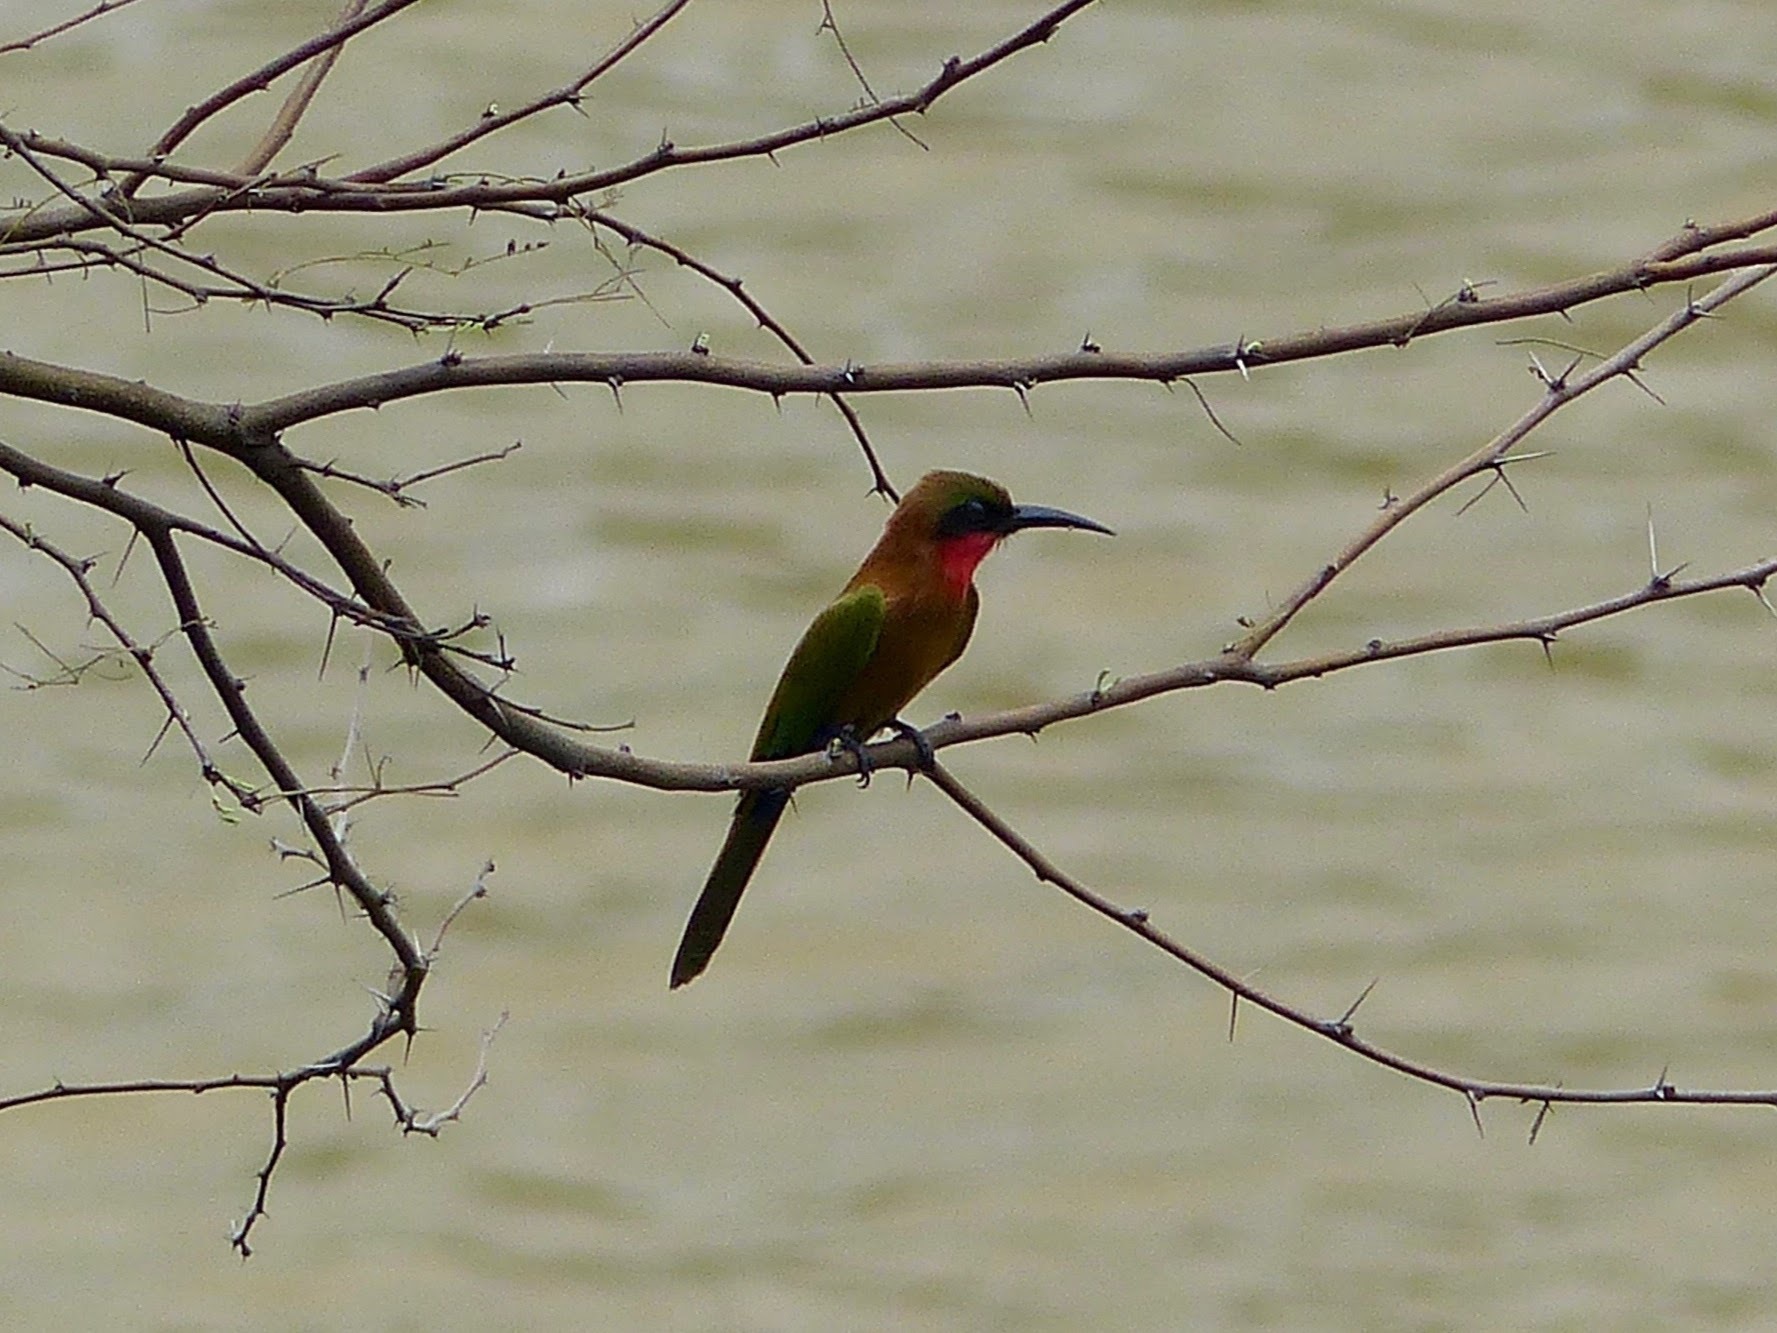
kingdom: Animalia
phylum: Chordata
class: Aves
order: Coraciiformes
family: Meropidae
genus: Merops
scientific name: Merops bulocki
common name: Red-throated bee-eater
